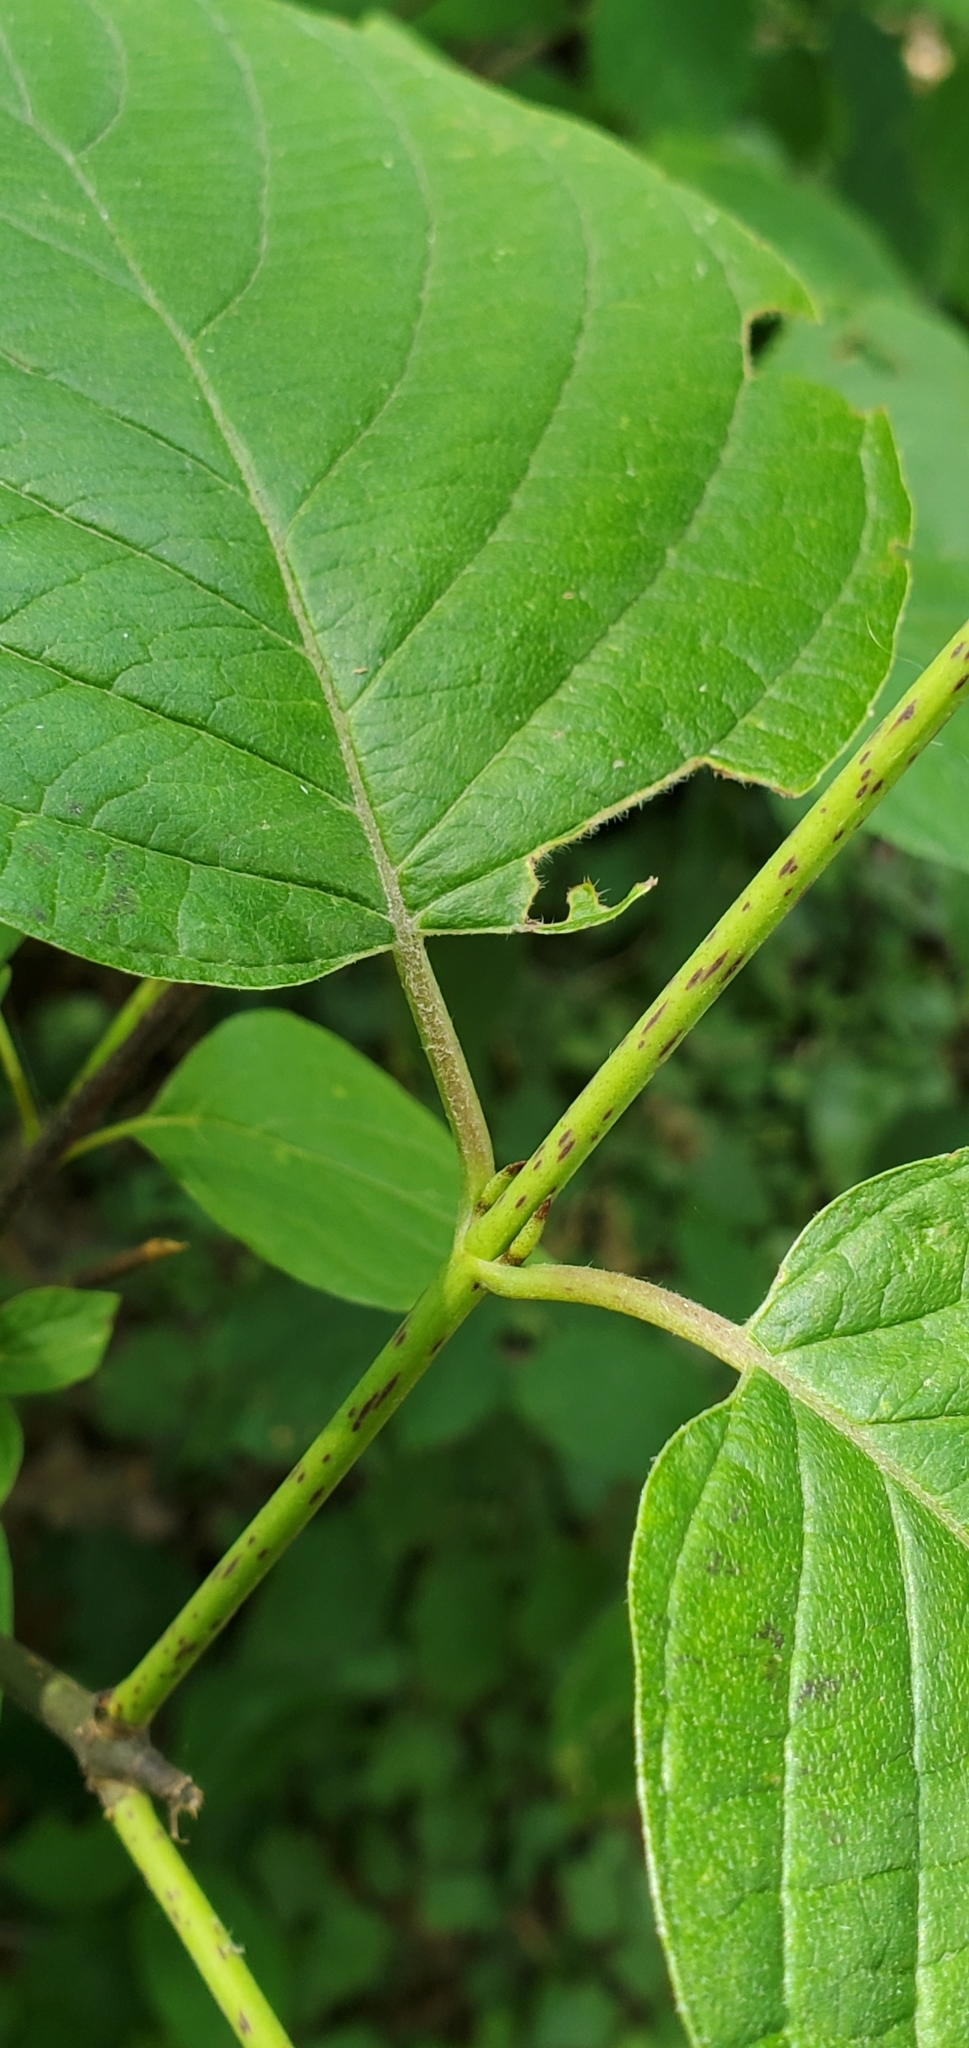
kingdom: Plantae
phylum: Tracheophyta
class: Magnoliopsida
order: Cornales
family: Cornaceae
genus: Cornus
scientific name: Cornus rugosa
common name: Round-leaf dogwood
